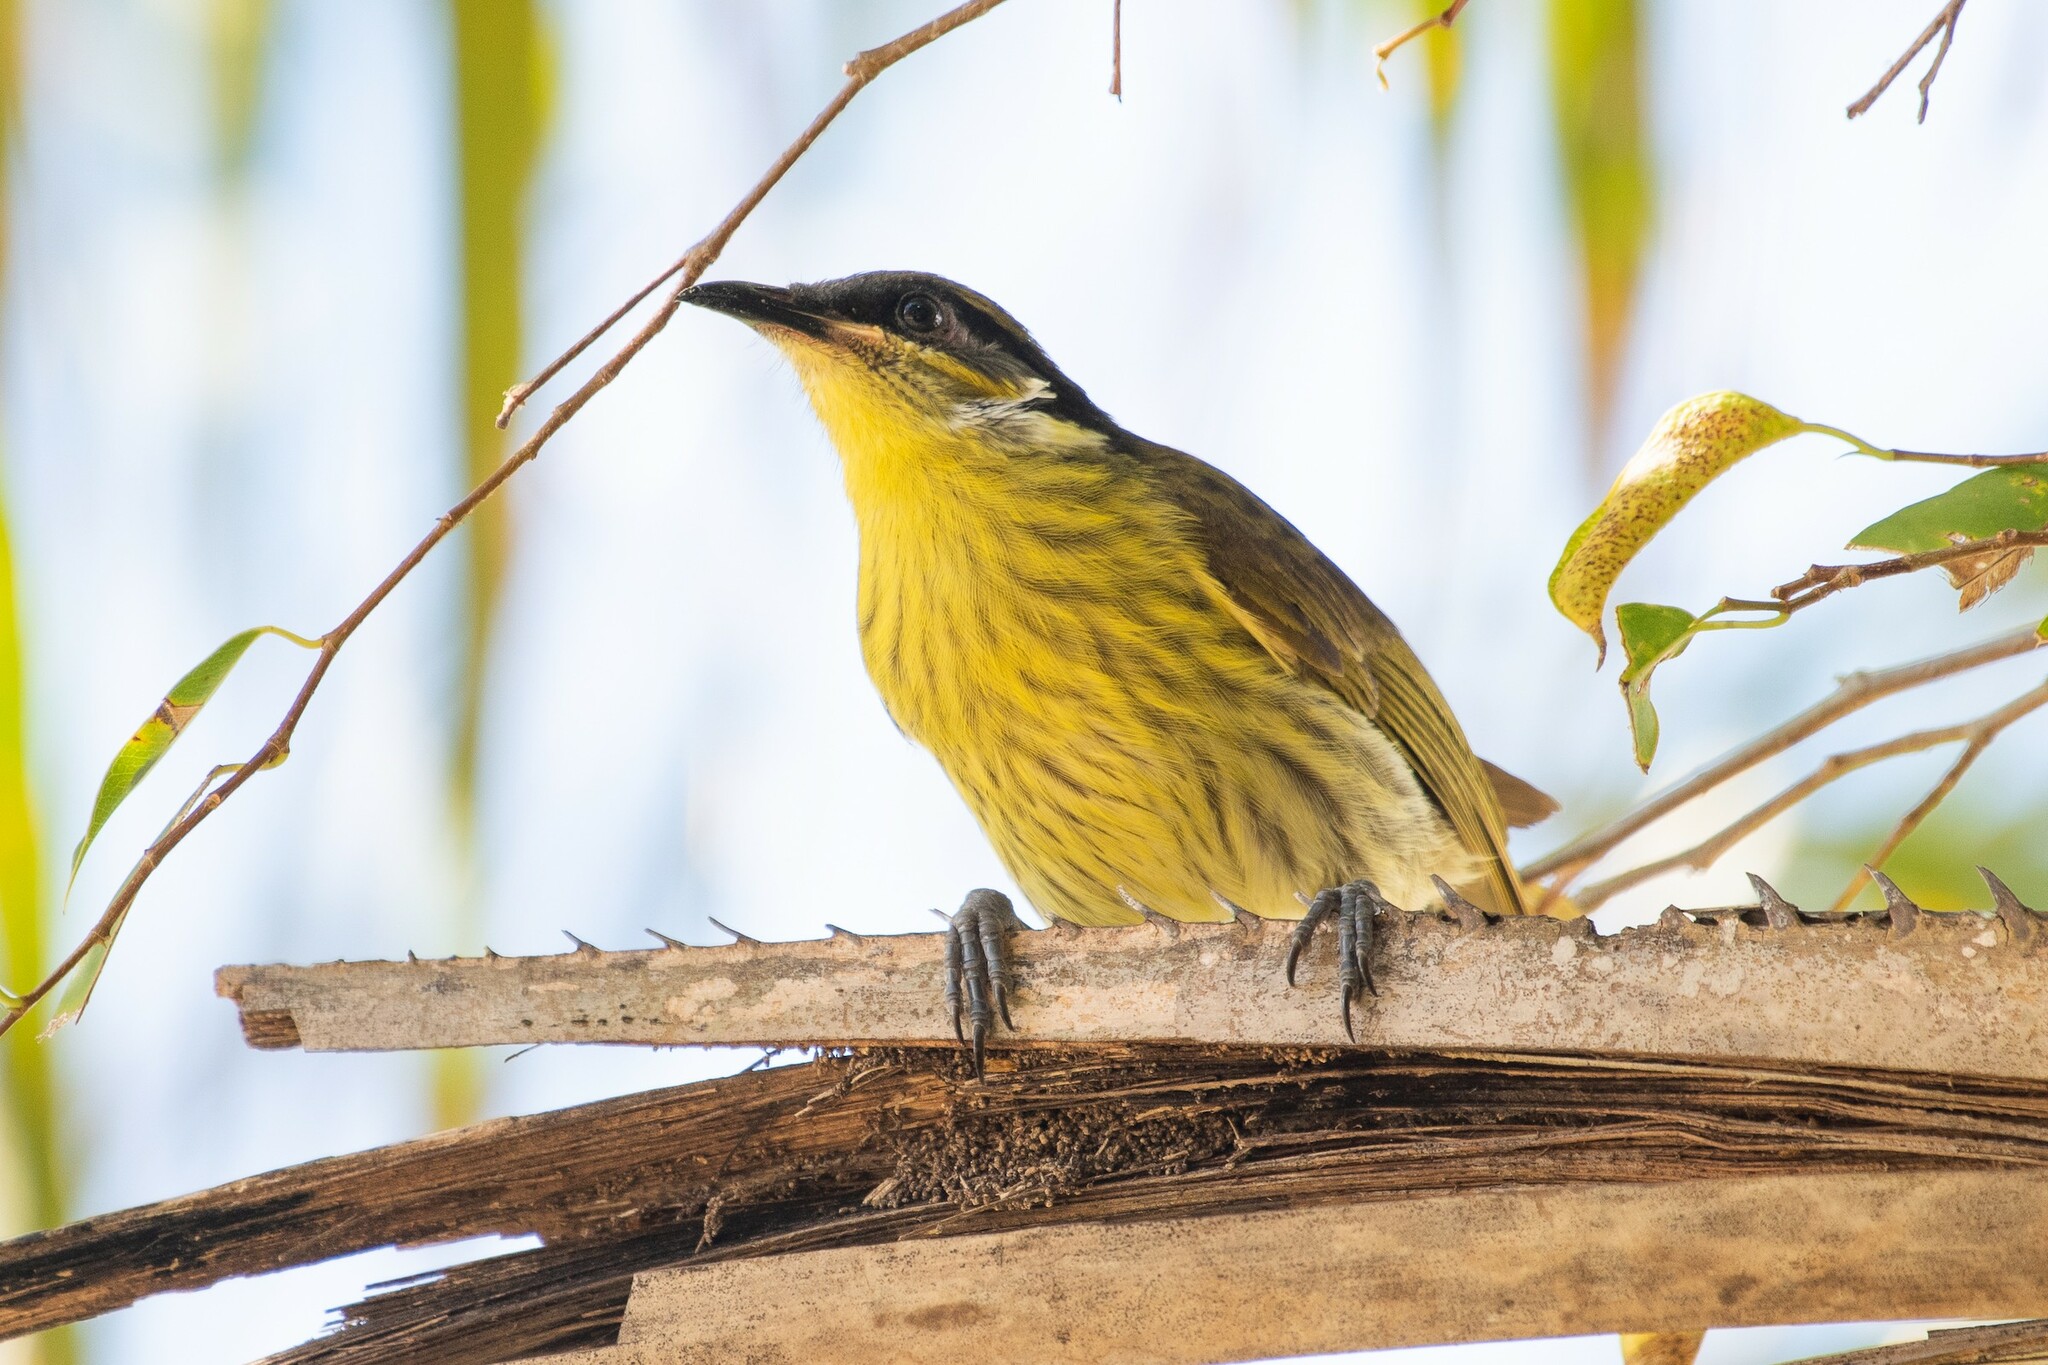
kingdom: Animalia
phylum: Chordata
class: Aves
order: Passeriformes
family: Meliphagidae
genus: Gavicalis
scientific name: Gavicalis versicolor
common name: Varied honeyeater
